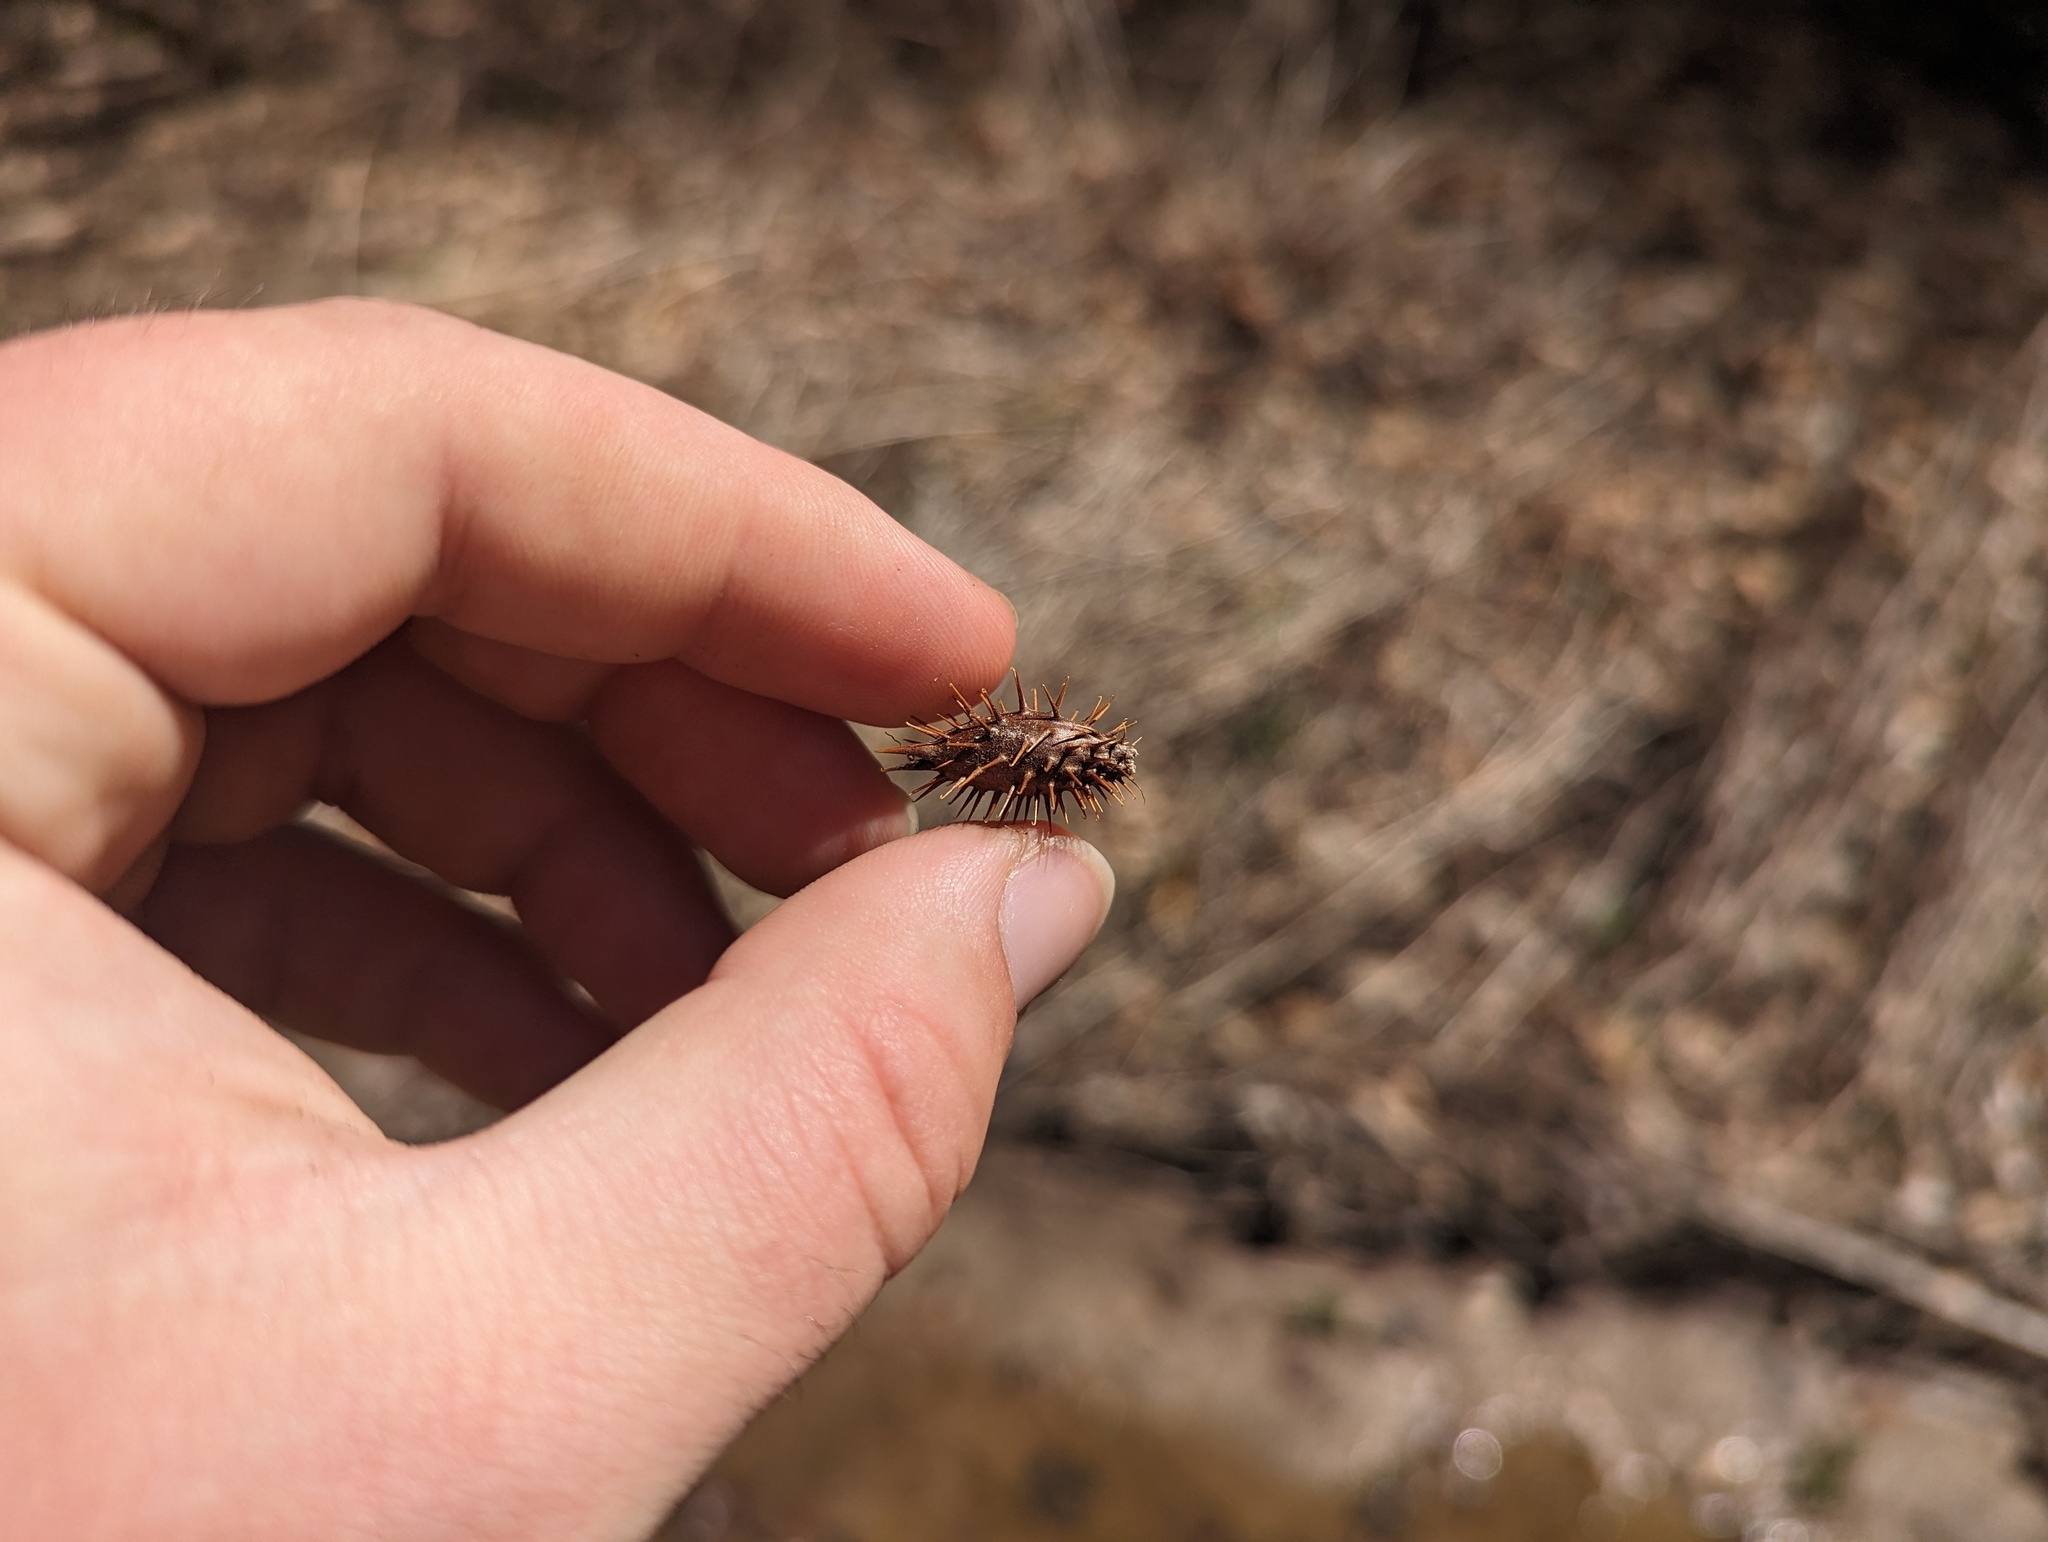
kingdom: Plantae
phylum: Tracheophyta
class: Magnoliopsida
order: Asterales
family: Asteraceae
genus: Xanthium
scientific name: Xanthium strumarium
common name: Rough cocklebur
